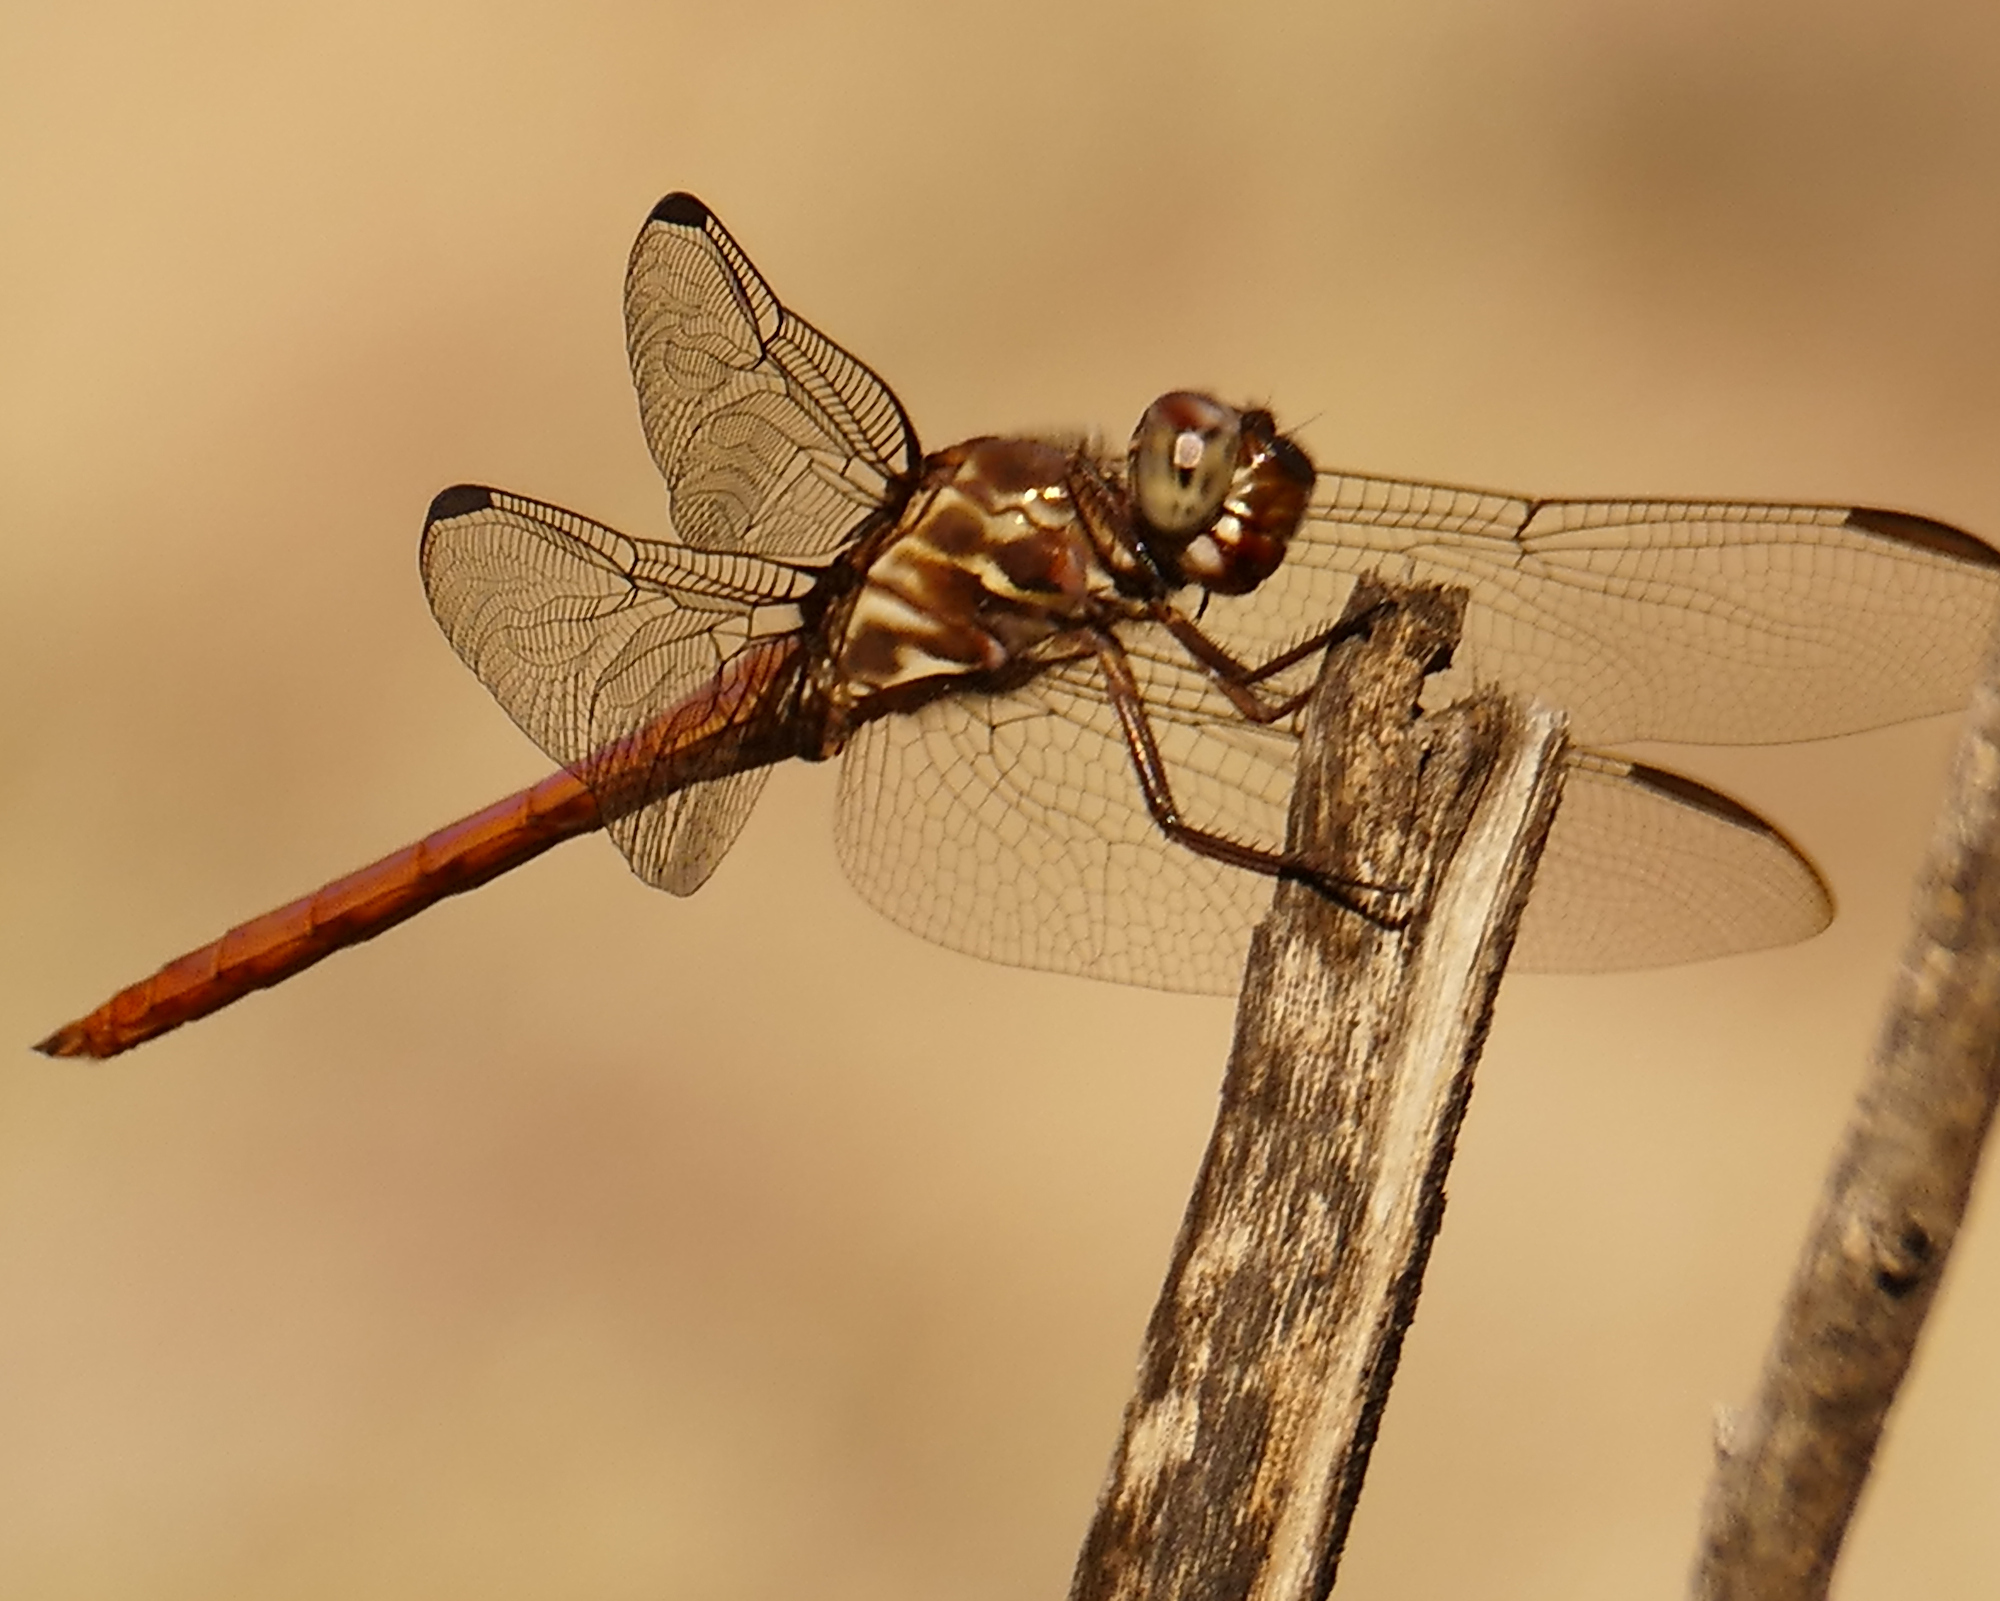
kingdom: Animalia
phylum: Arthropoda
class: Insecta
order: Odonata
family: Libellulidae
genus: Orthemis
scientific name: Orthemis ferruginea
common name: Roseate skimmer
